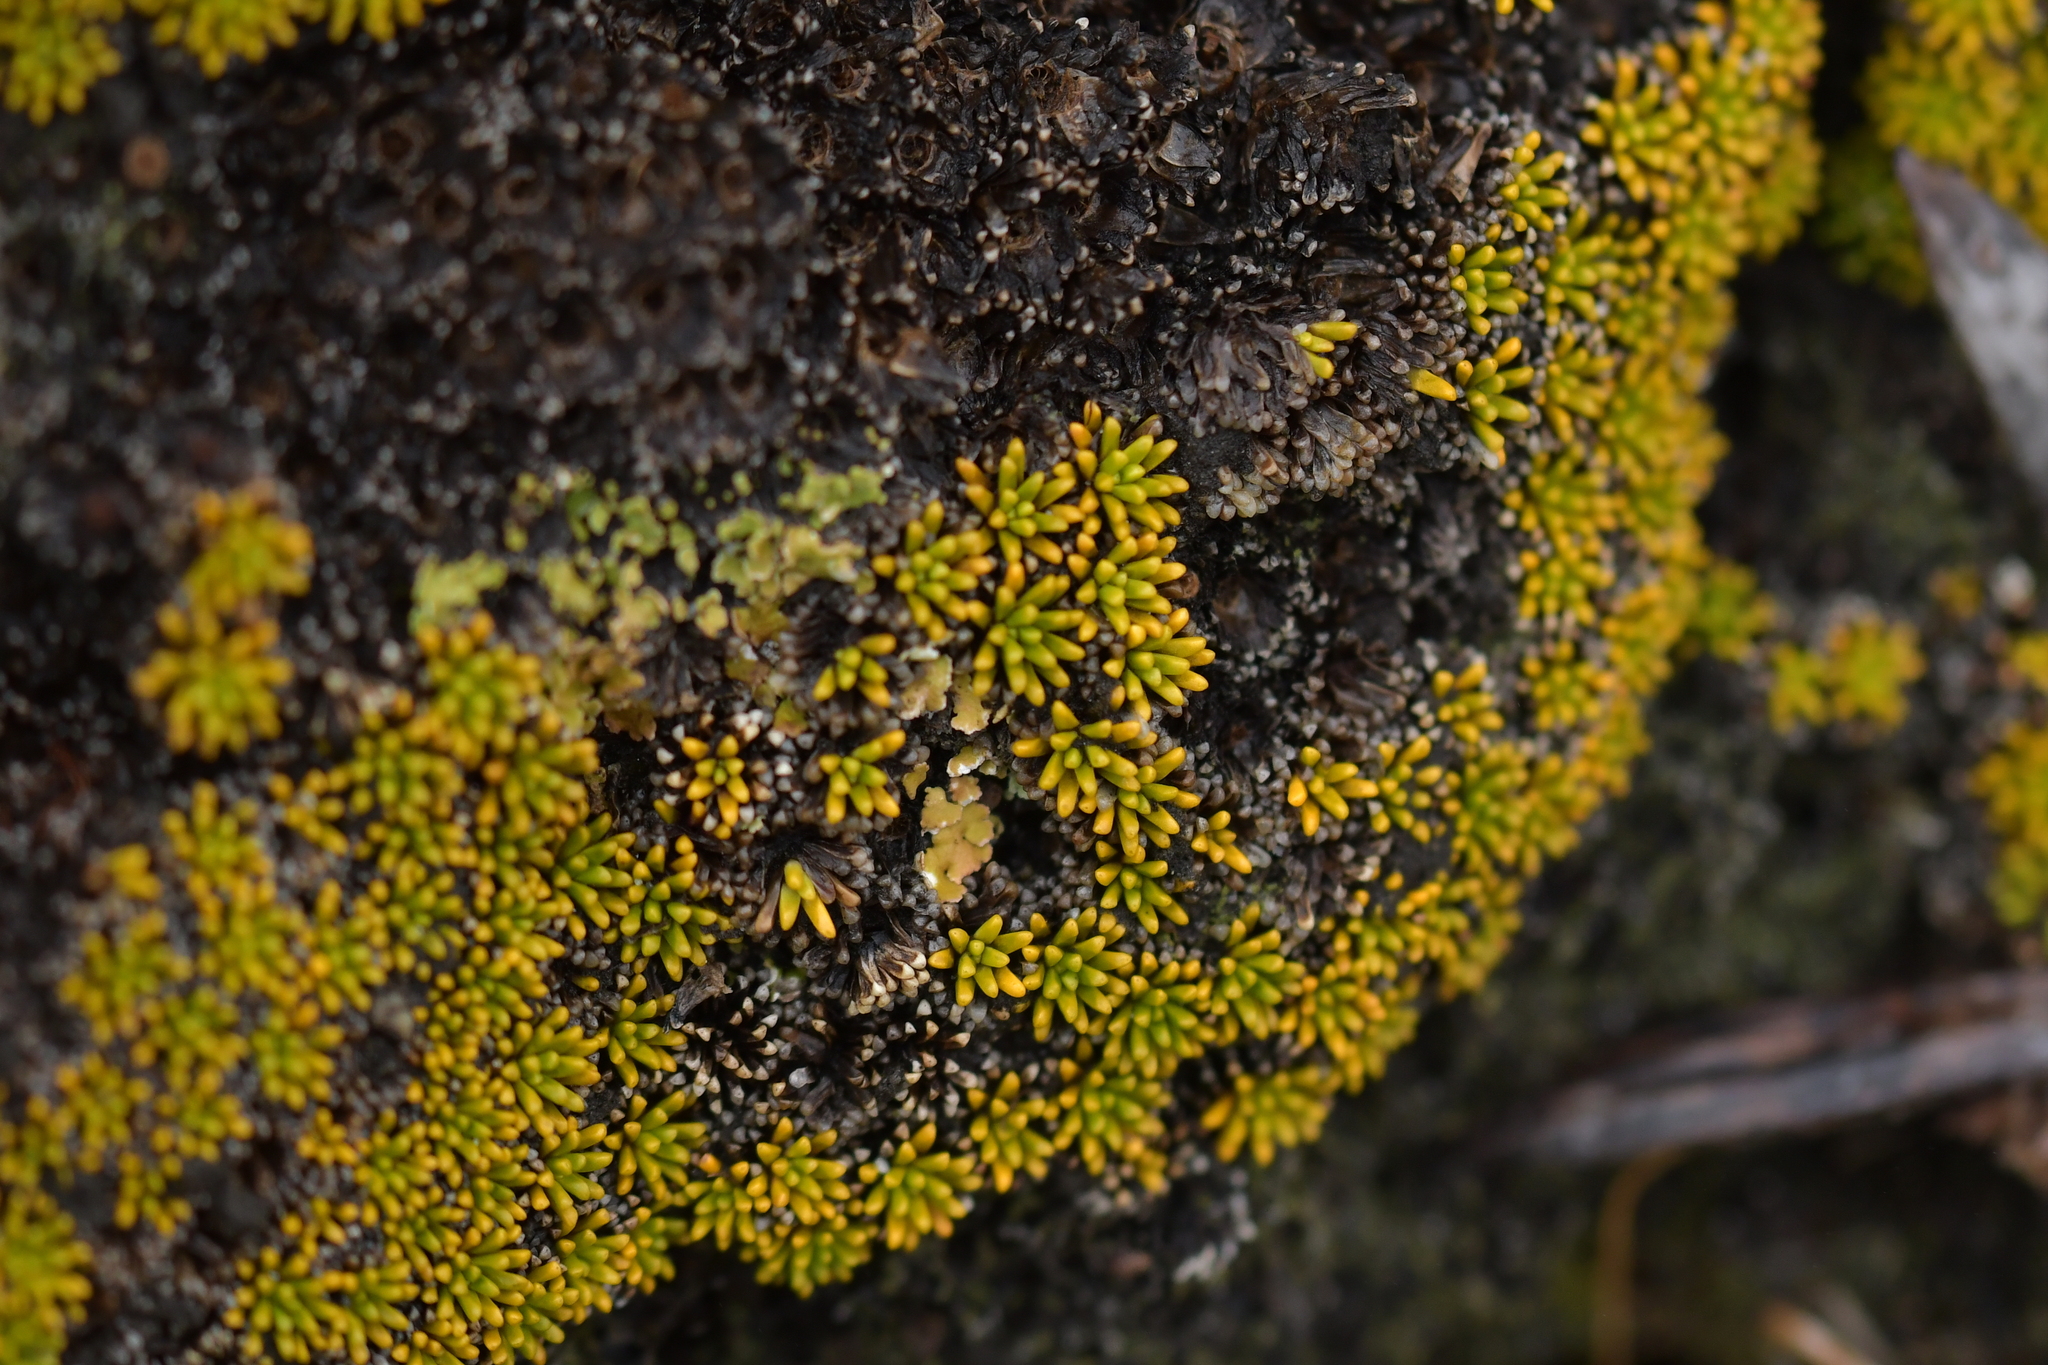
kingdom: Plantae
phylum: Tracheophyta
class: Magnoliopsida
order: Asterales
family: Stylidiaceae
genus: Phyllachne
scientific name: Phyllachne colensoi
